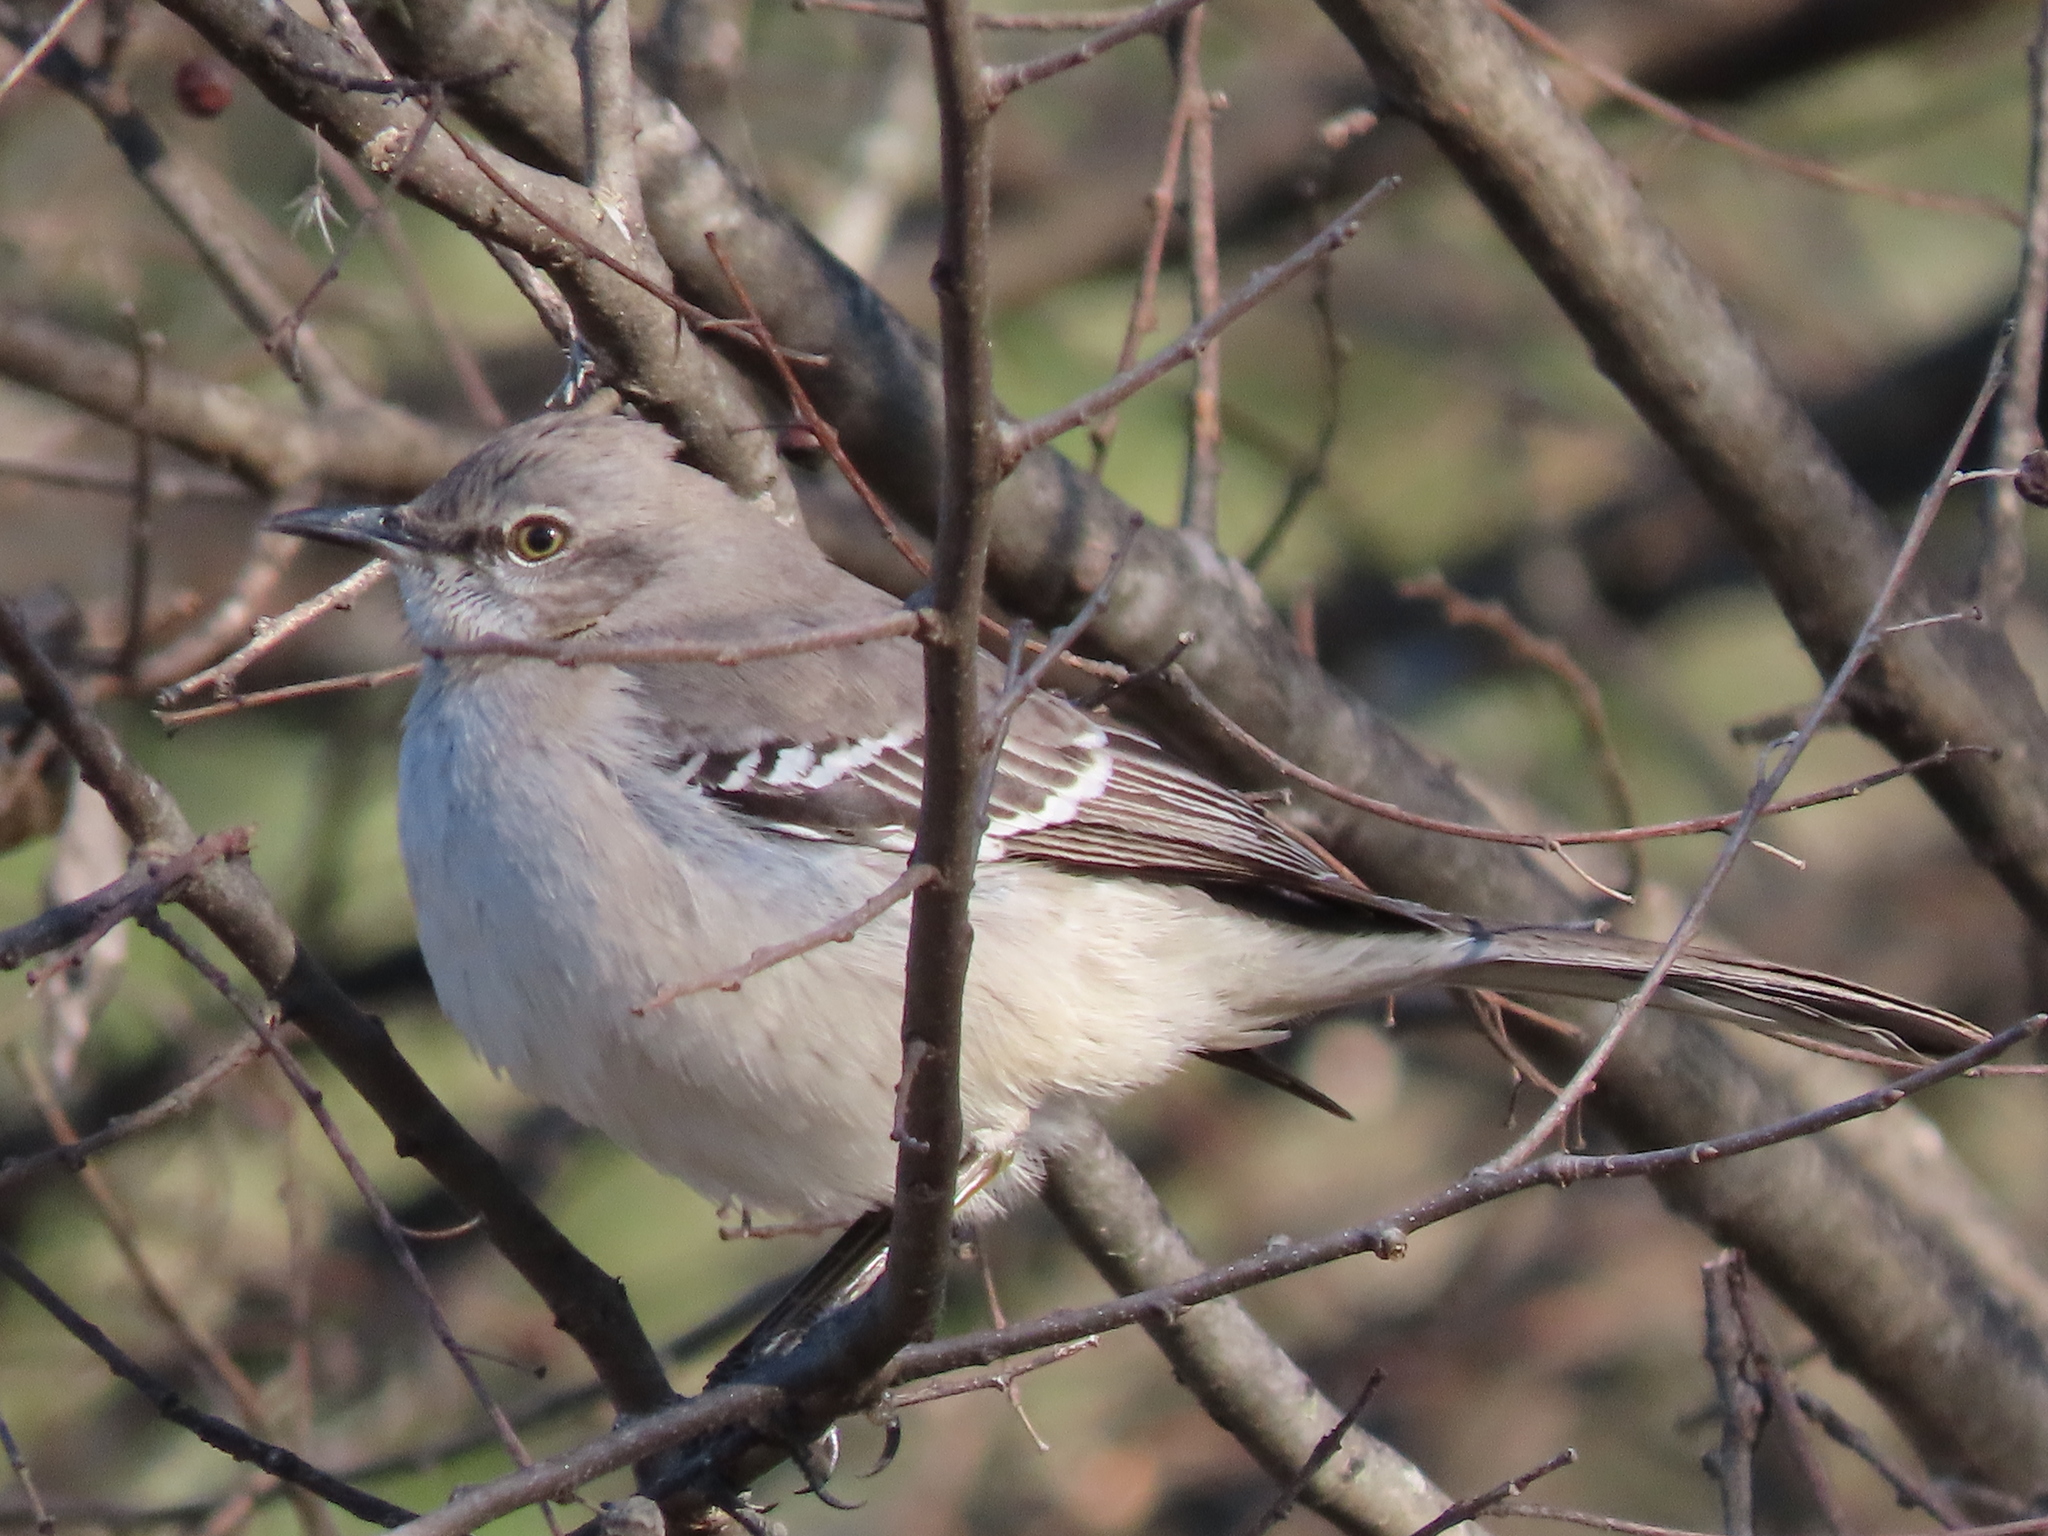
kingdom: Animalia
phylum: Chordata
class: Aves
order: Passeriformes
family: Mimidae
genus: Mimus
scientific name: Mimus polyglottos
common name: Northern mockingbird
